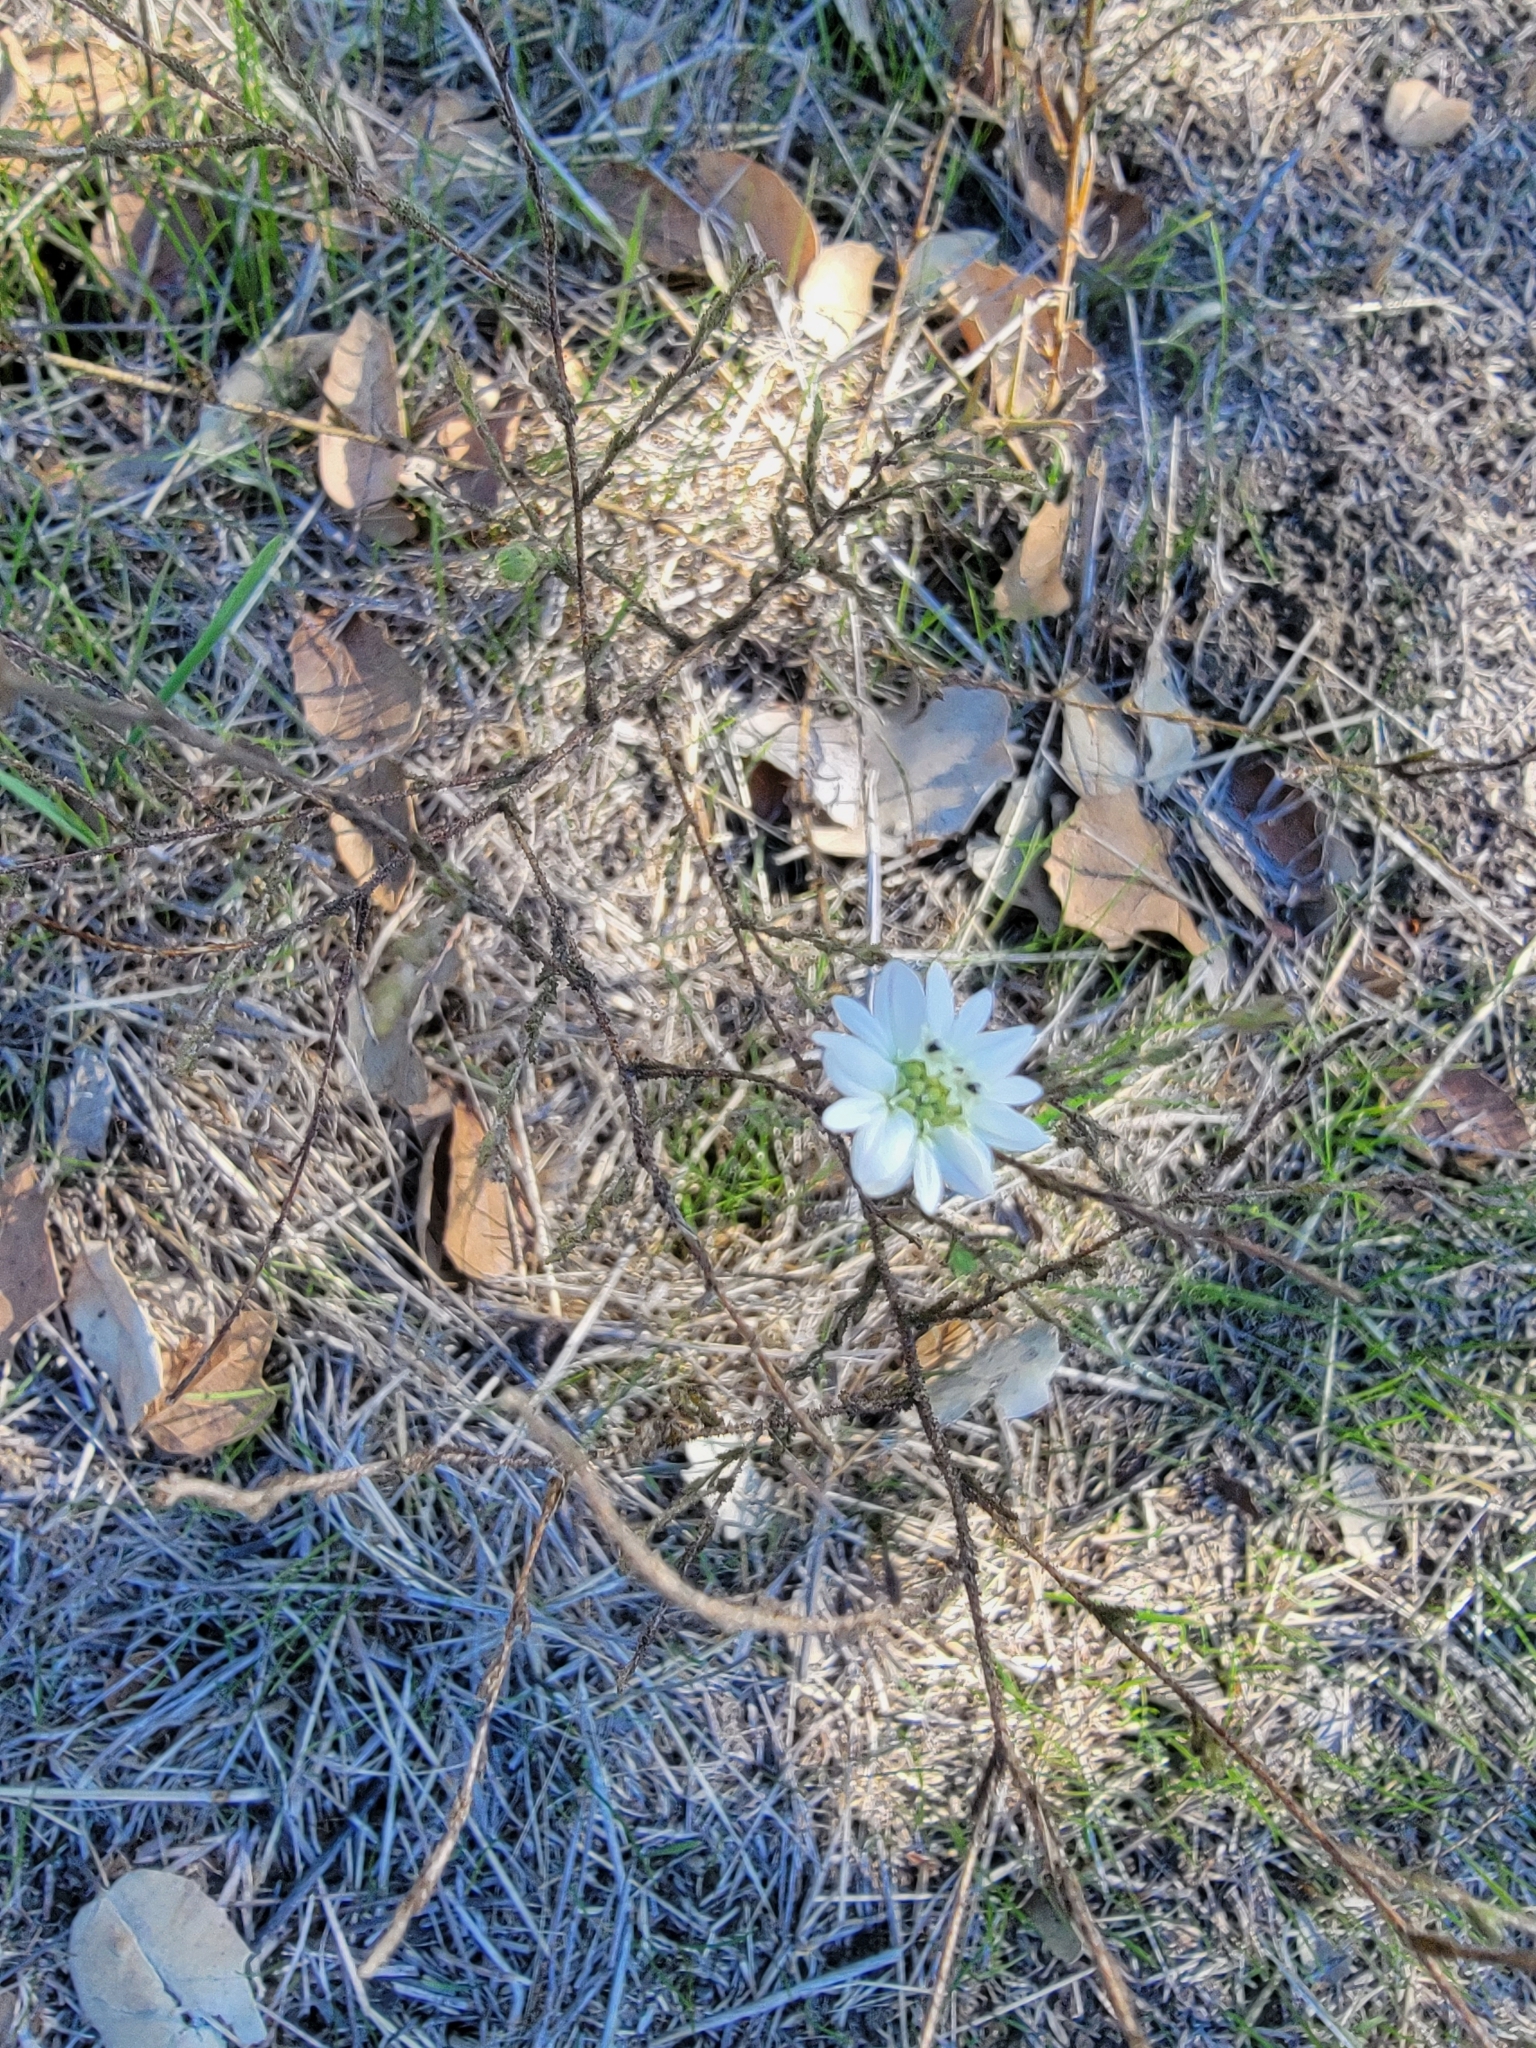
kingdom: Plantae
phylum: Tracheophyta
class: Magnoliopsida
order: Asterales
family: Asteraceae
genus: Hemizonia
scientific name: Hemizonia congesta
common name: Hayfield tarweed
